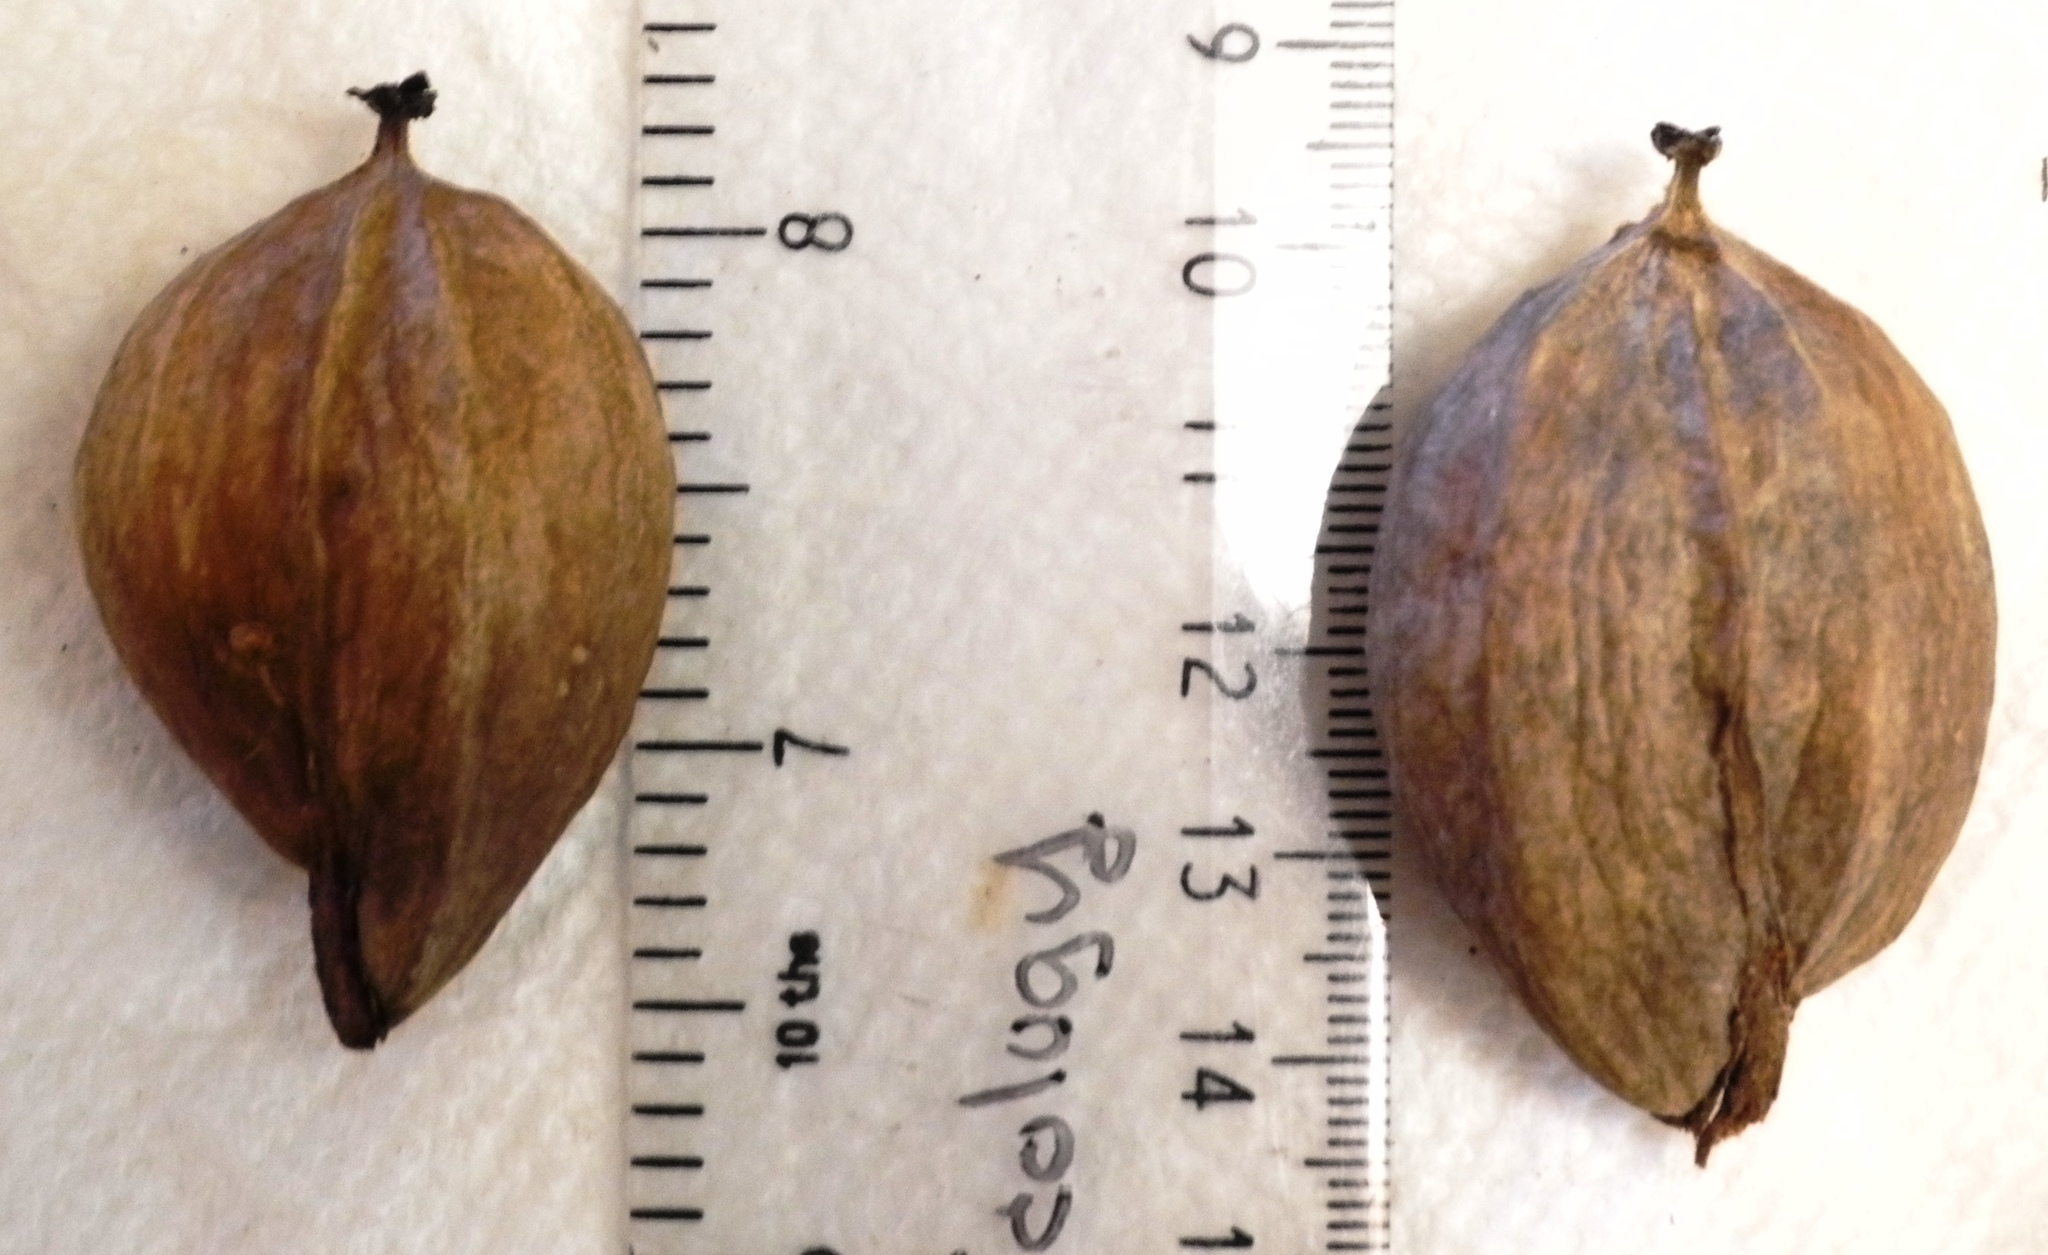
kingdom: Plantae
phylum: Tracheophyta
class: Magnoliopsida
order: Fagales
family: Juglandaceae
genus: Carya
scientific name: Carya laciniosa
